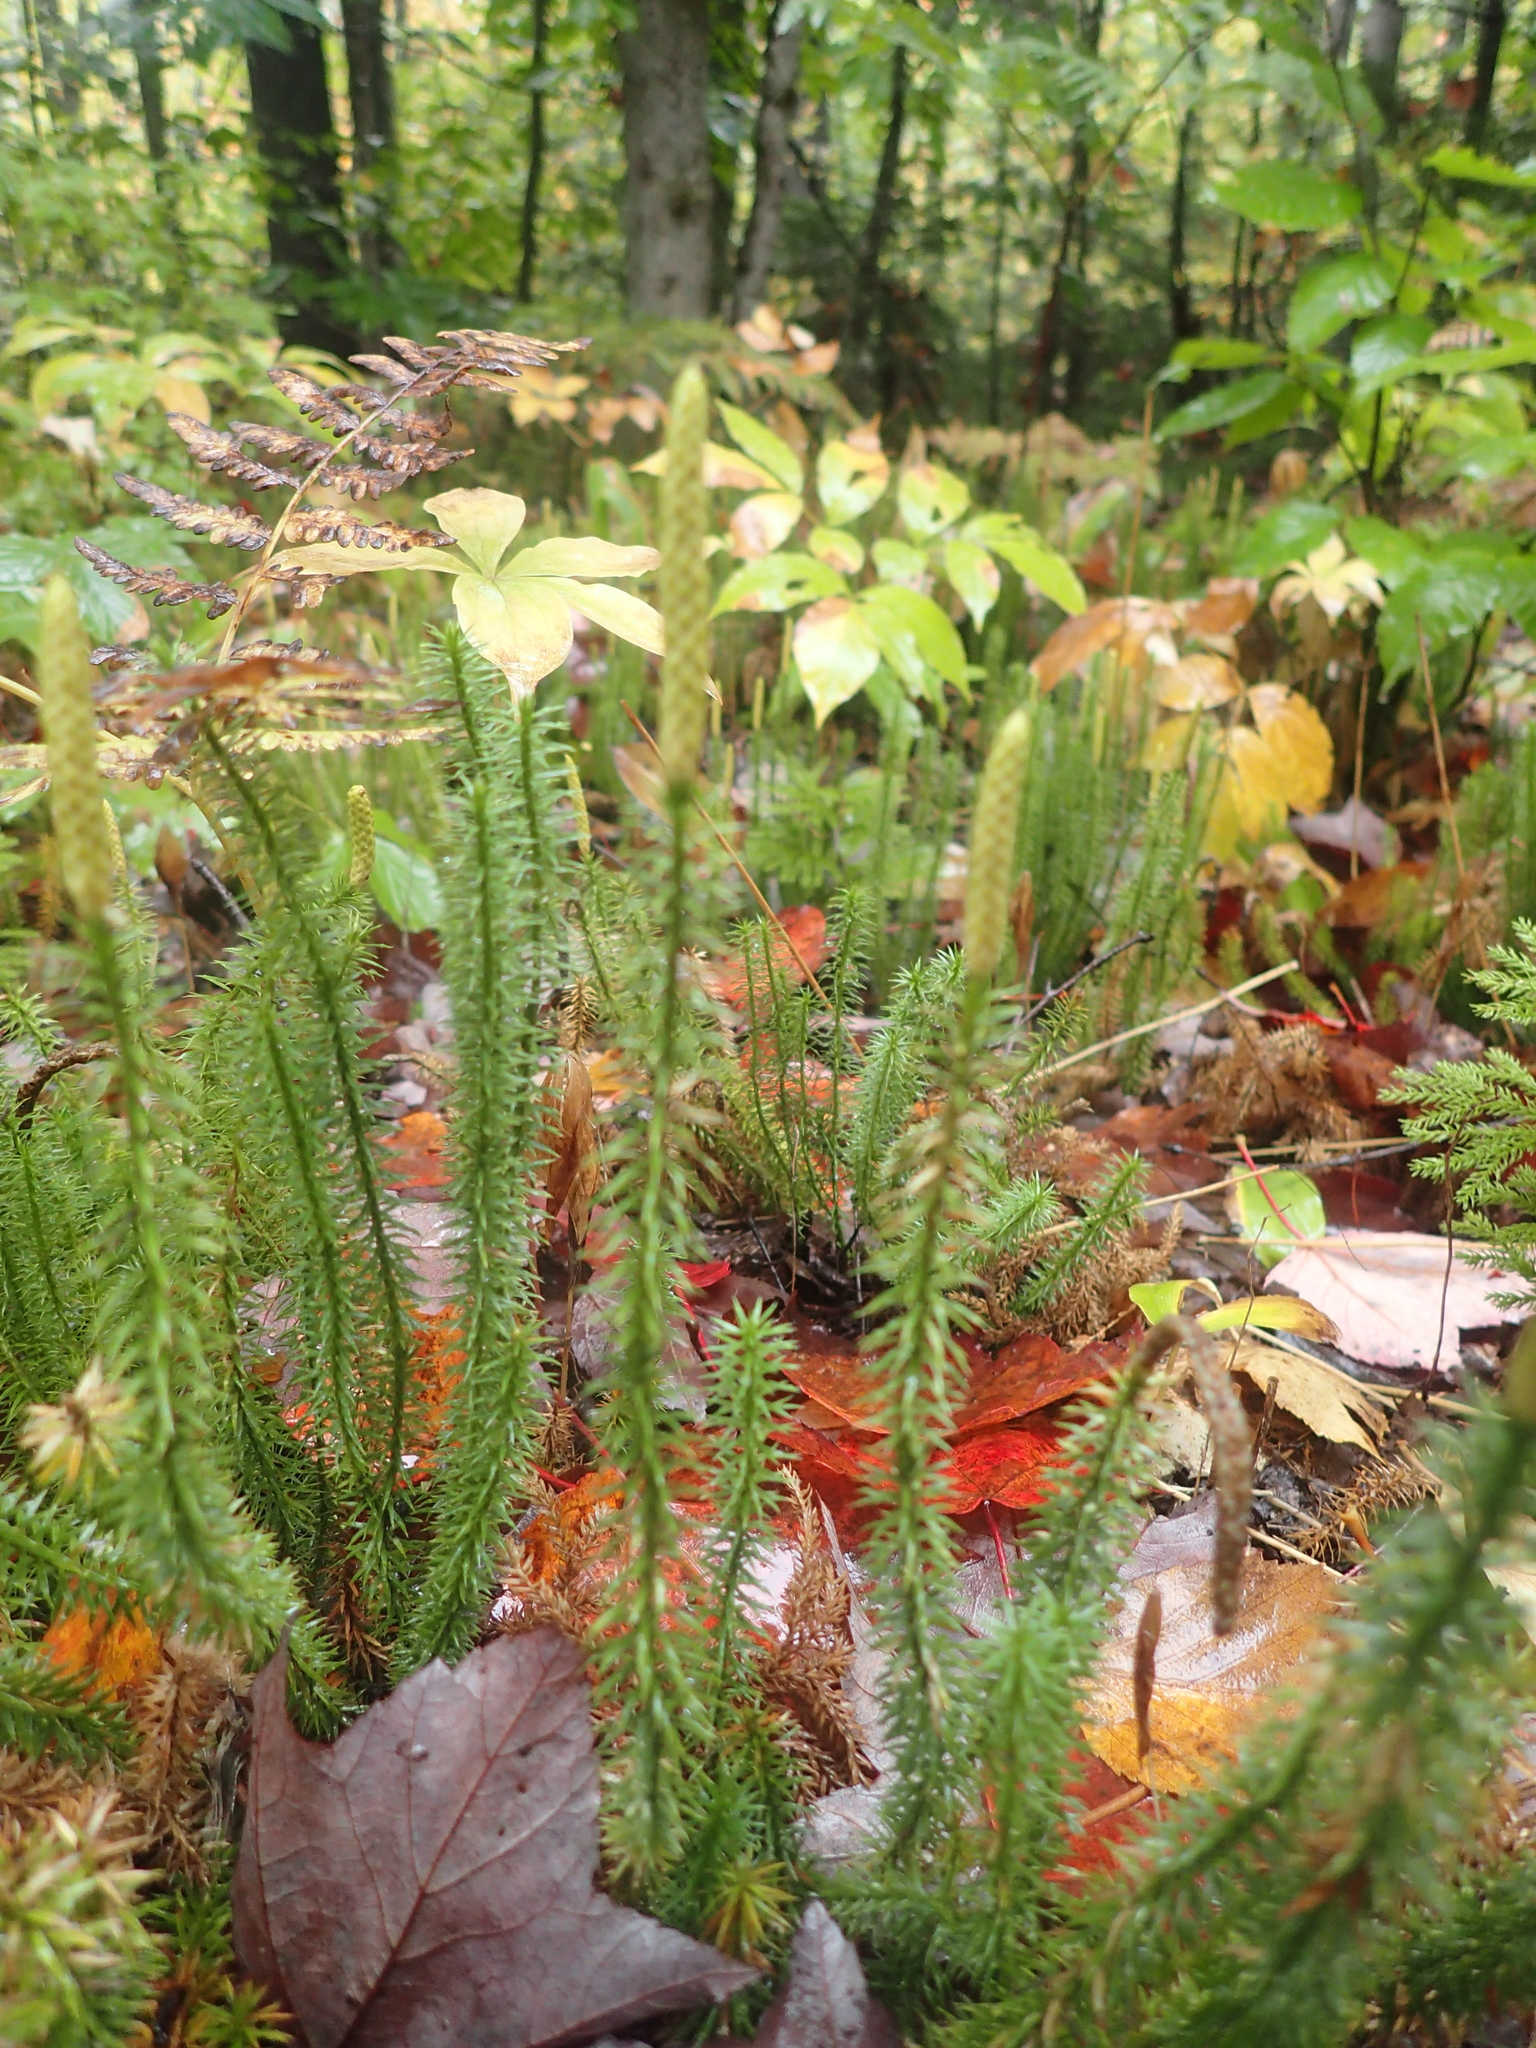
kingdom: Plantae
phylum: Tracheophyta
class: Lycopodiopsida
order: Lycopodiales
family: Lycopodiaceae
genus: Spinulum
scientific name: Spinulum annotinum
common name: Interrupted club-moss
